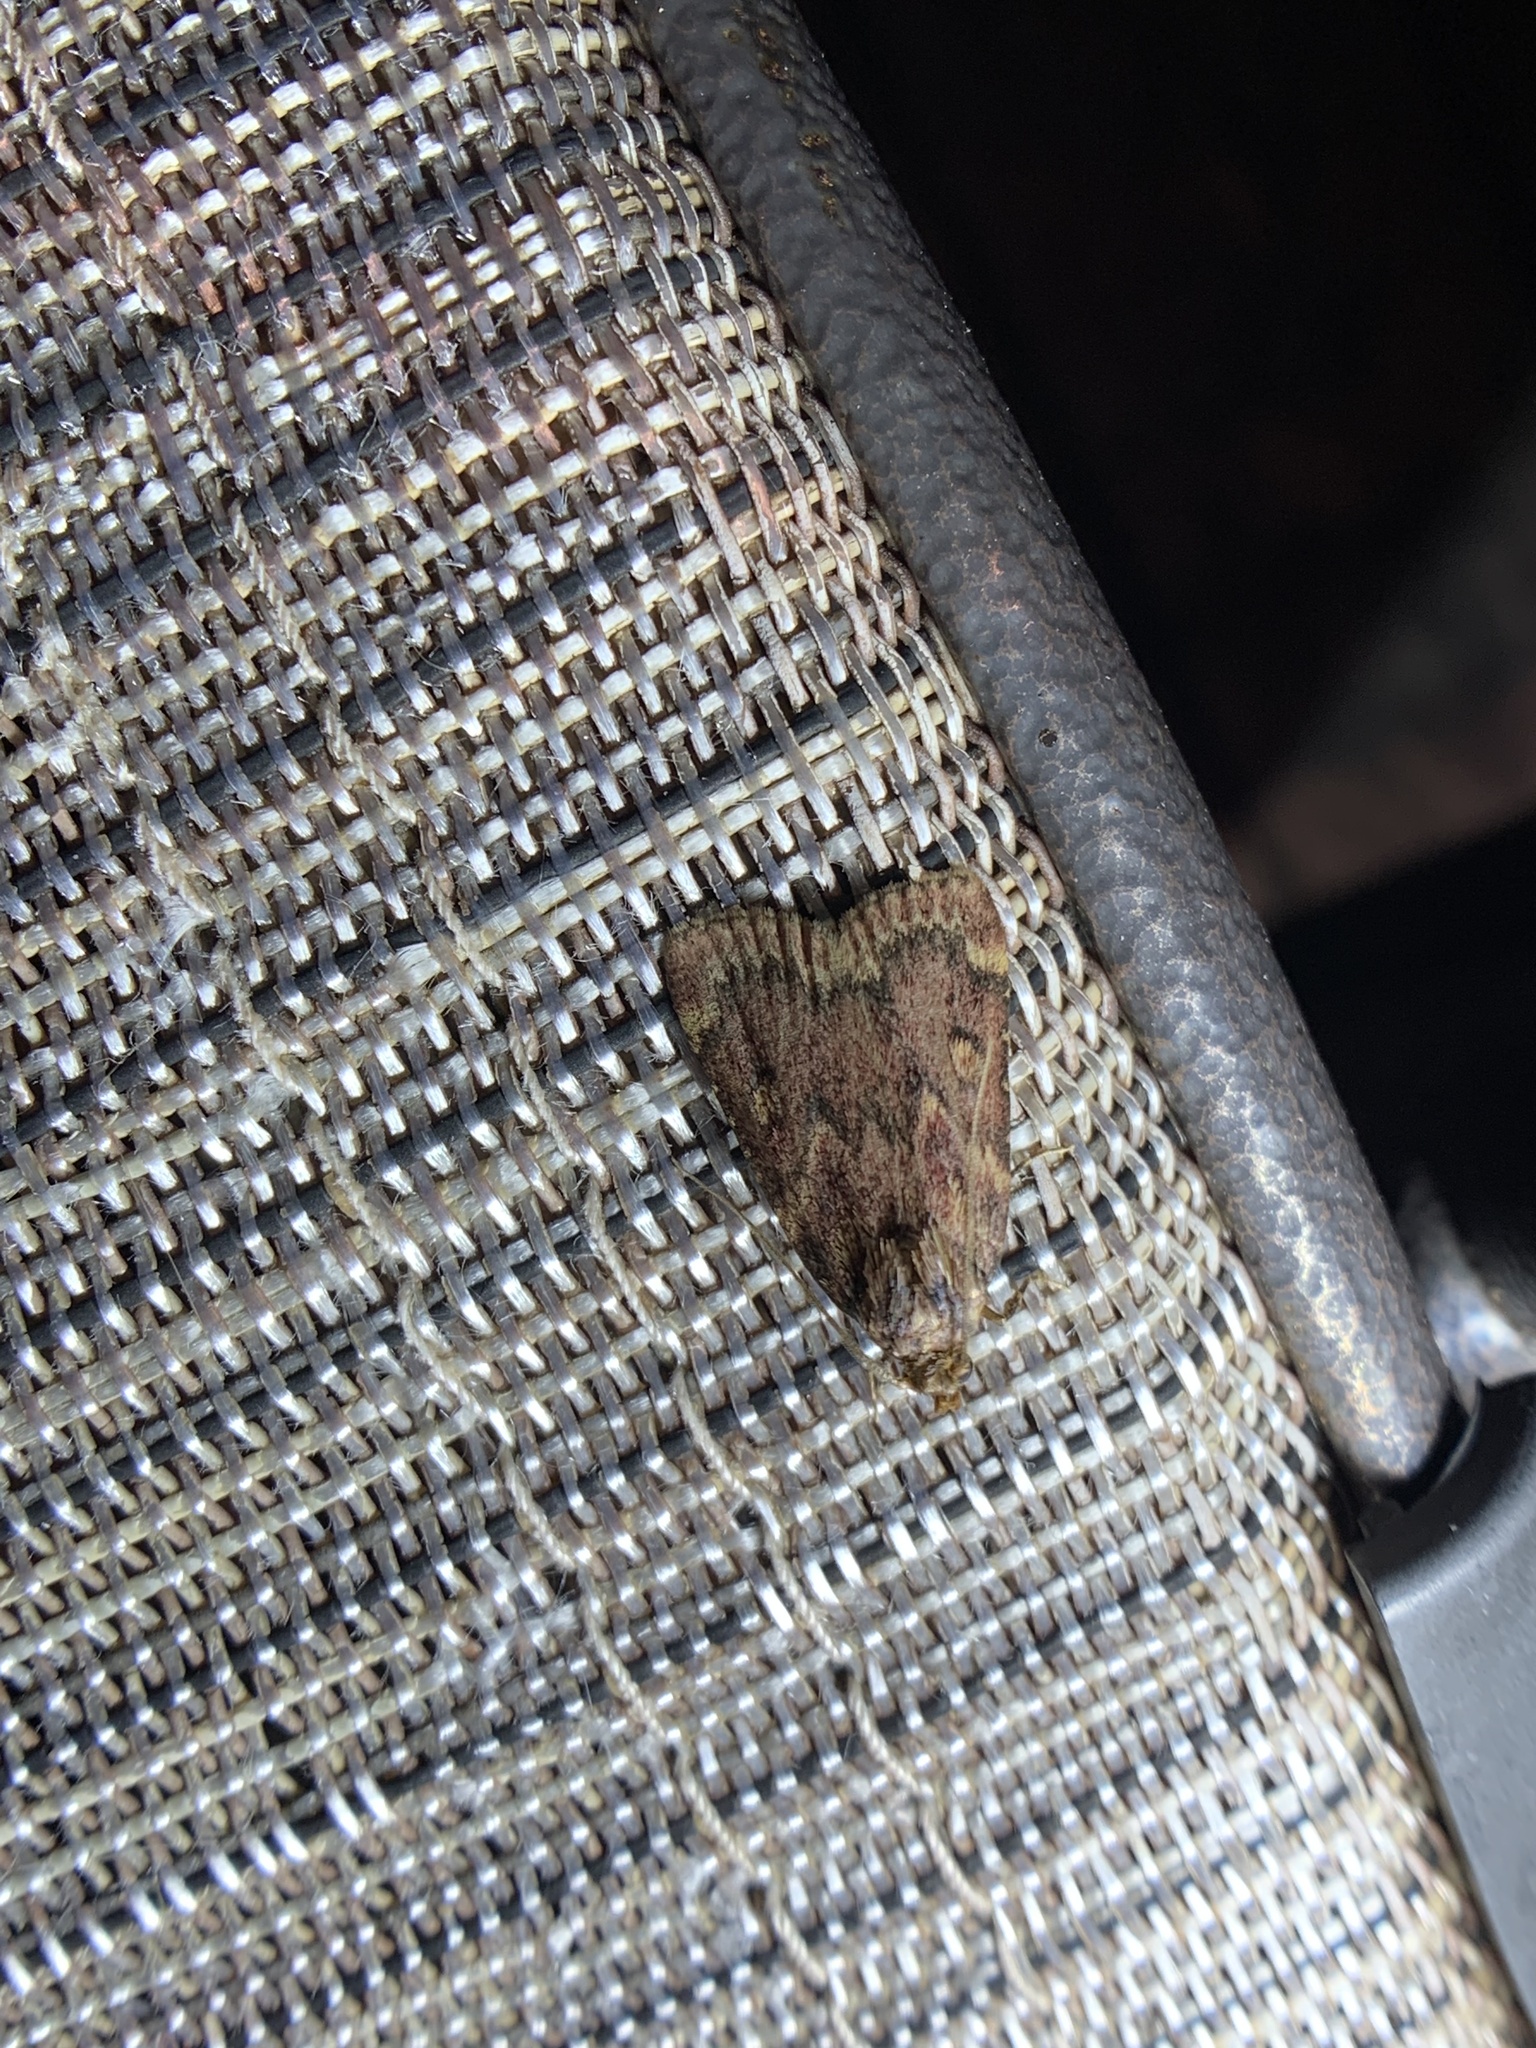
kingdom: Animalia
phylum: Arthropoda
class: Insecta
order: Lepidoptera
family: Pyralidae
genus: Aglossa
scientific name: Aglossa cuprina
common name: Grease moth
